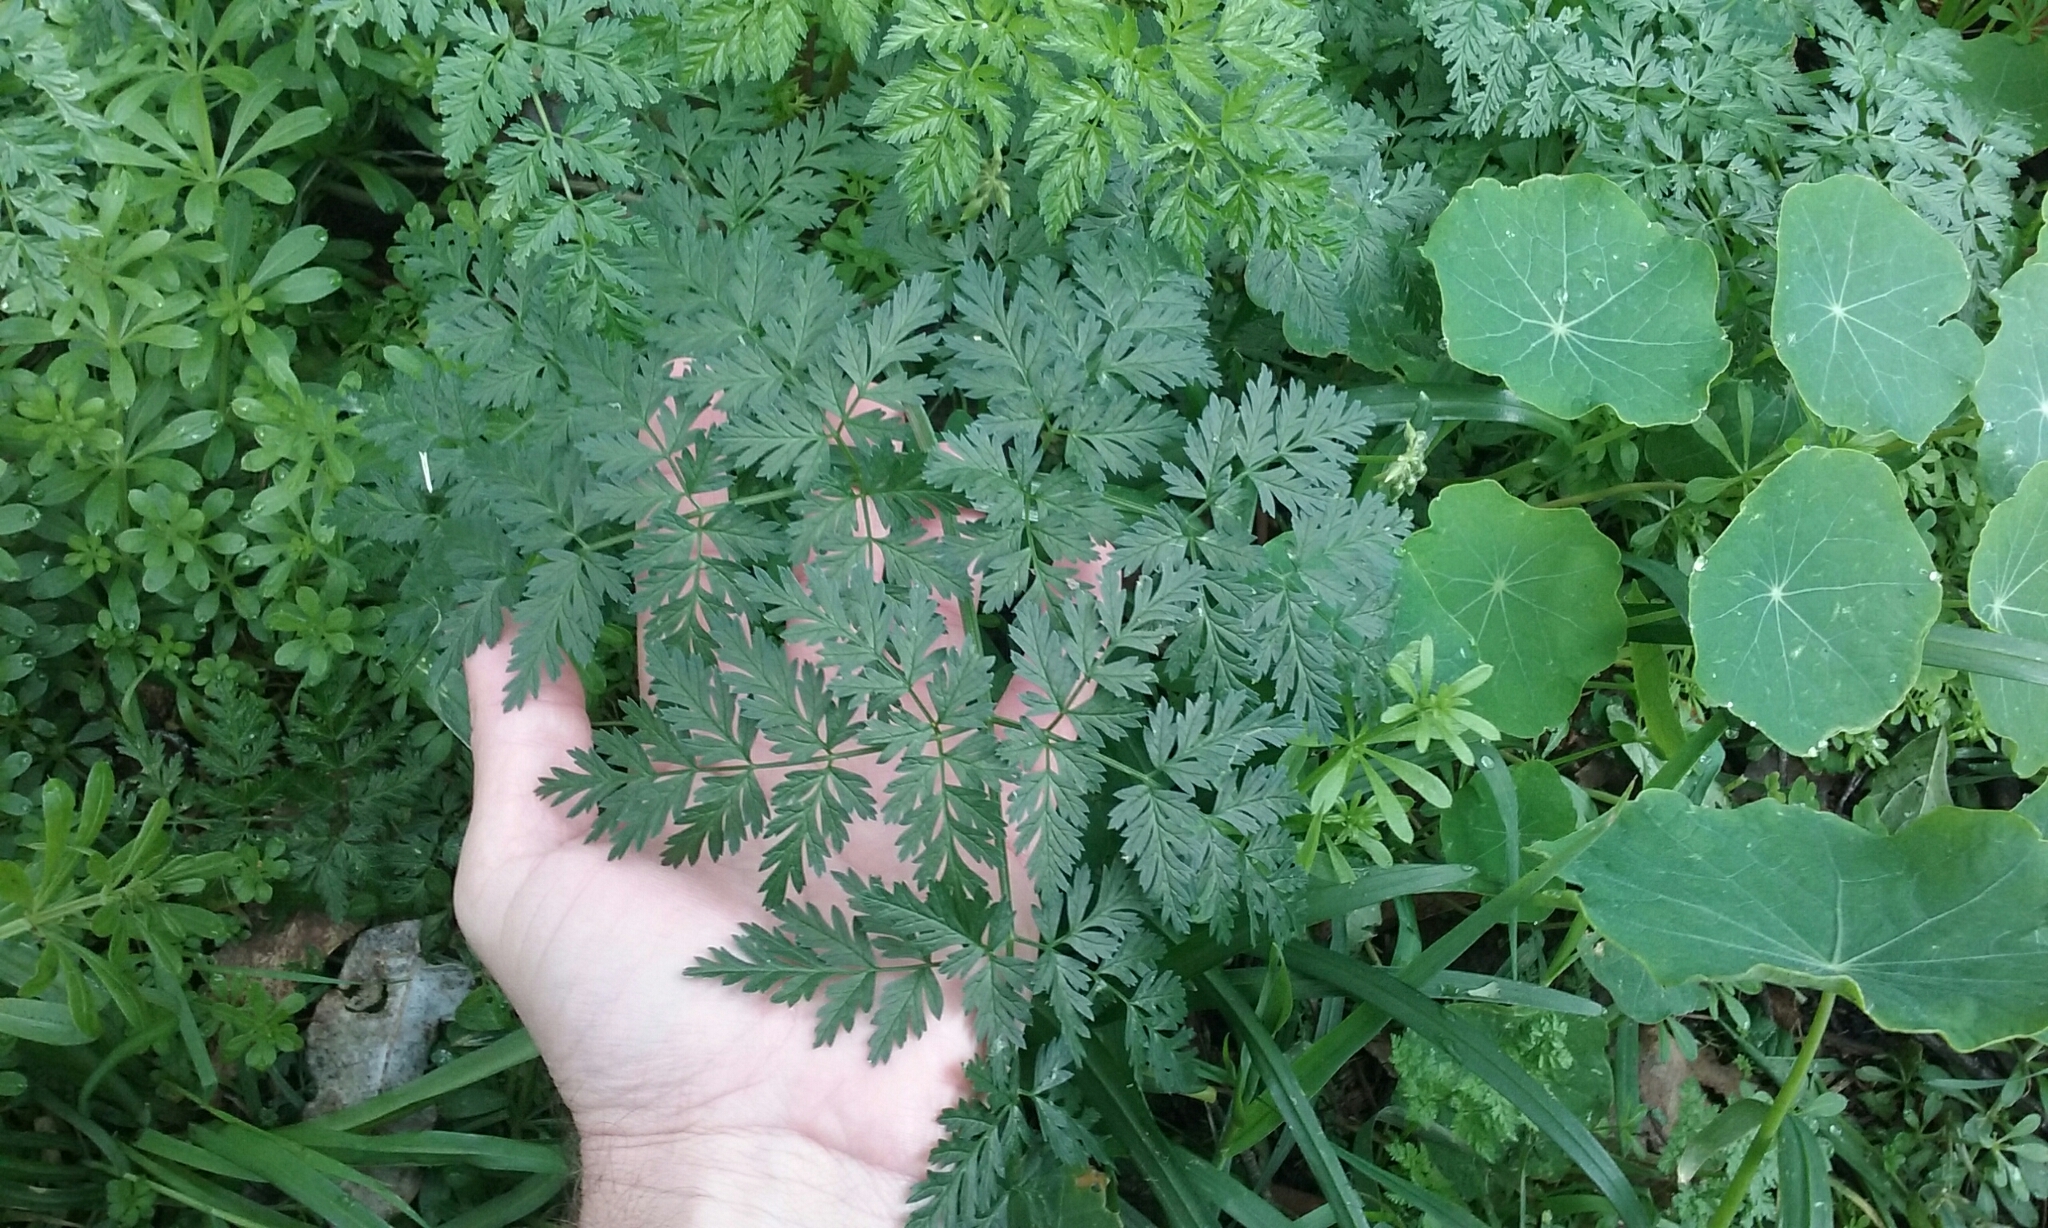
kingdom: Plantae
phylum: Tracheophyta
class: Magnoliopsida
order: Apiales
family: Apiaceae
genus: Conium
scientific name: Conium maculatum
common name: Hemlock
